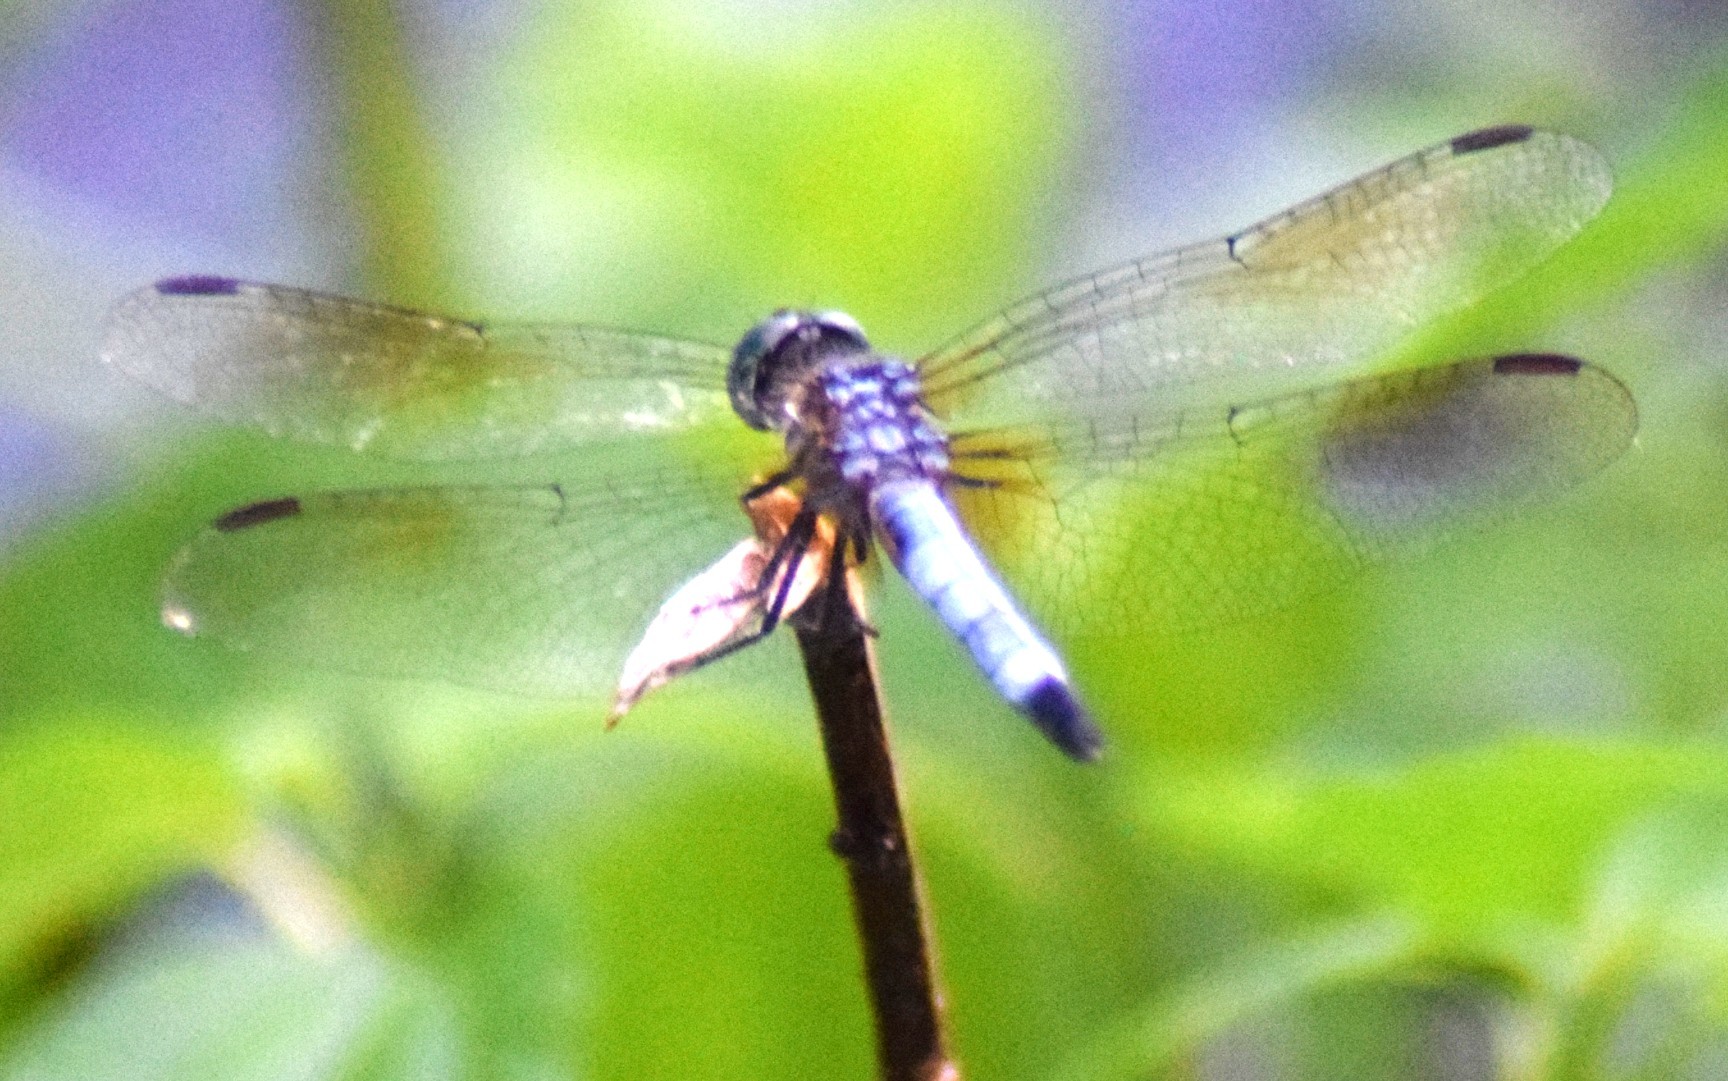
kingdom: Animalia
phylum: Arthropoda
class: Insecta
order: Odonata
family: Libellulidae
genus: Pachydiplax
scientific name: Pachydiplax longipennis
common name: Blue dasher
